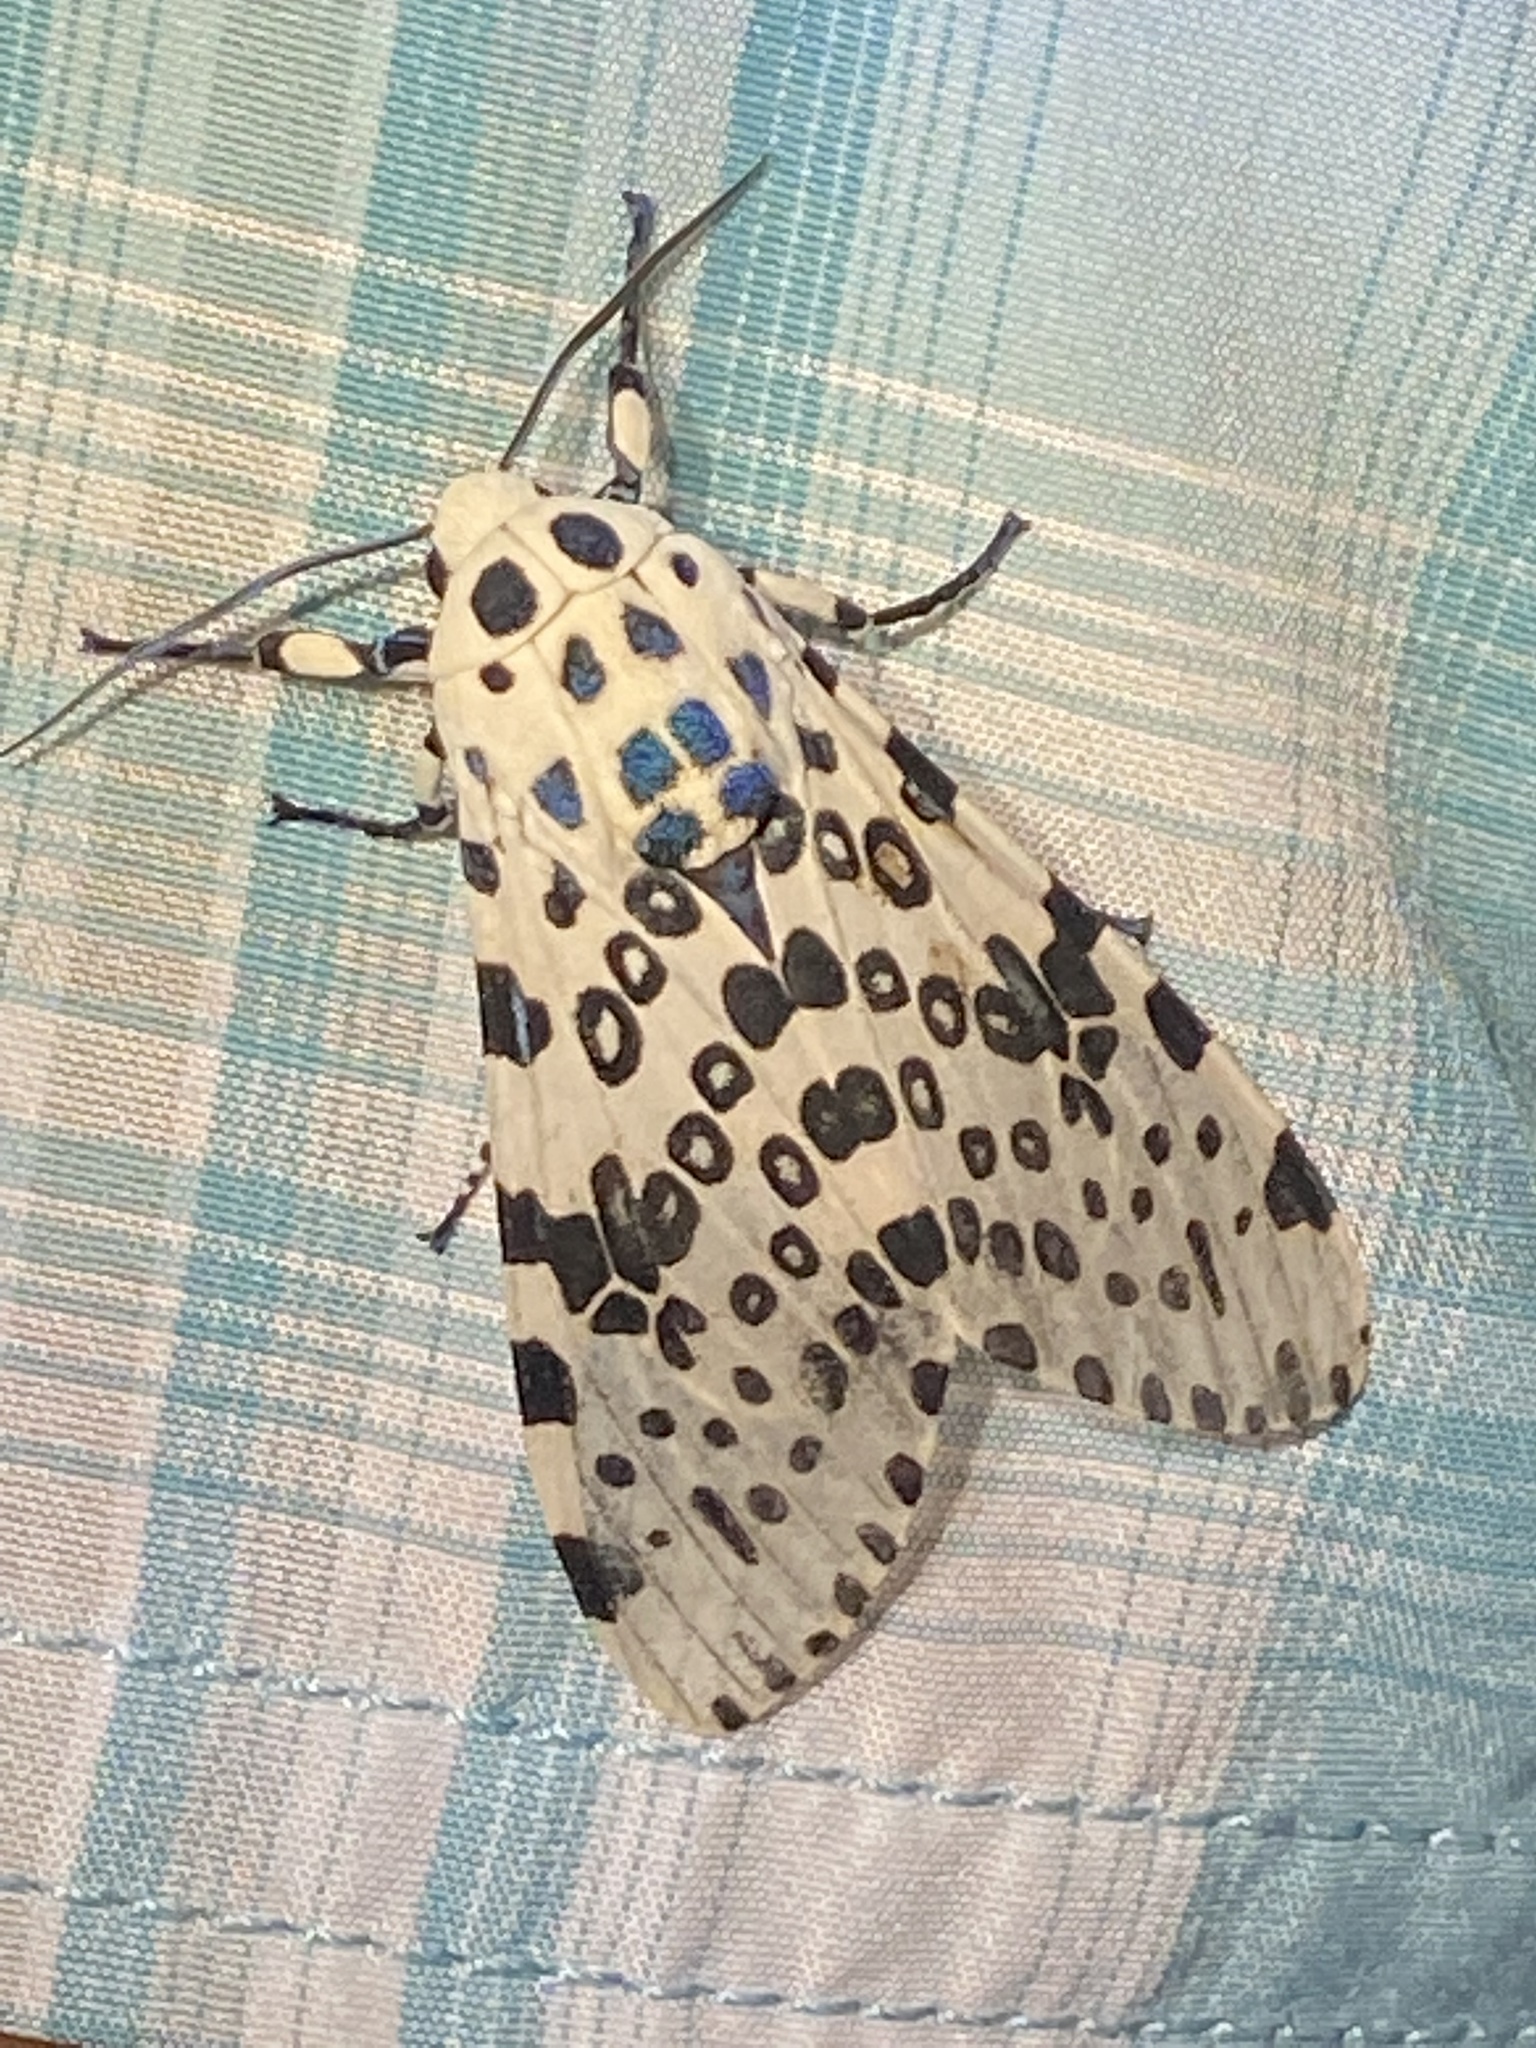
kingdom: Animalia
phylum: Arthropoda
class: Insecta
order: Lepidoptera
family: Erebidae
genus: Hypercompe
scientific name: Hypercompe scribonia
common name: Giant leopard moth
